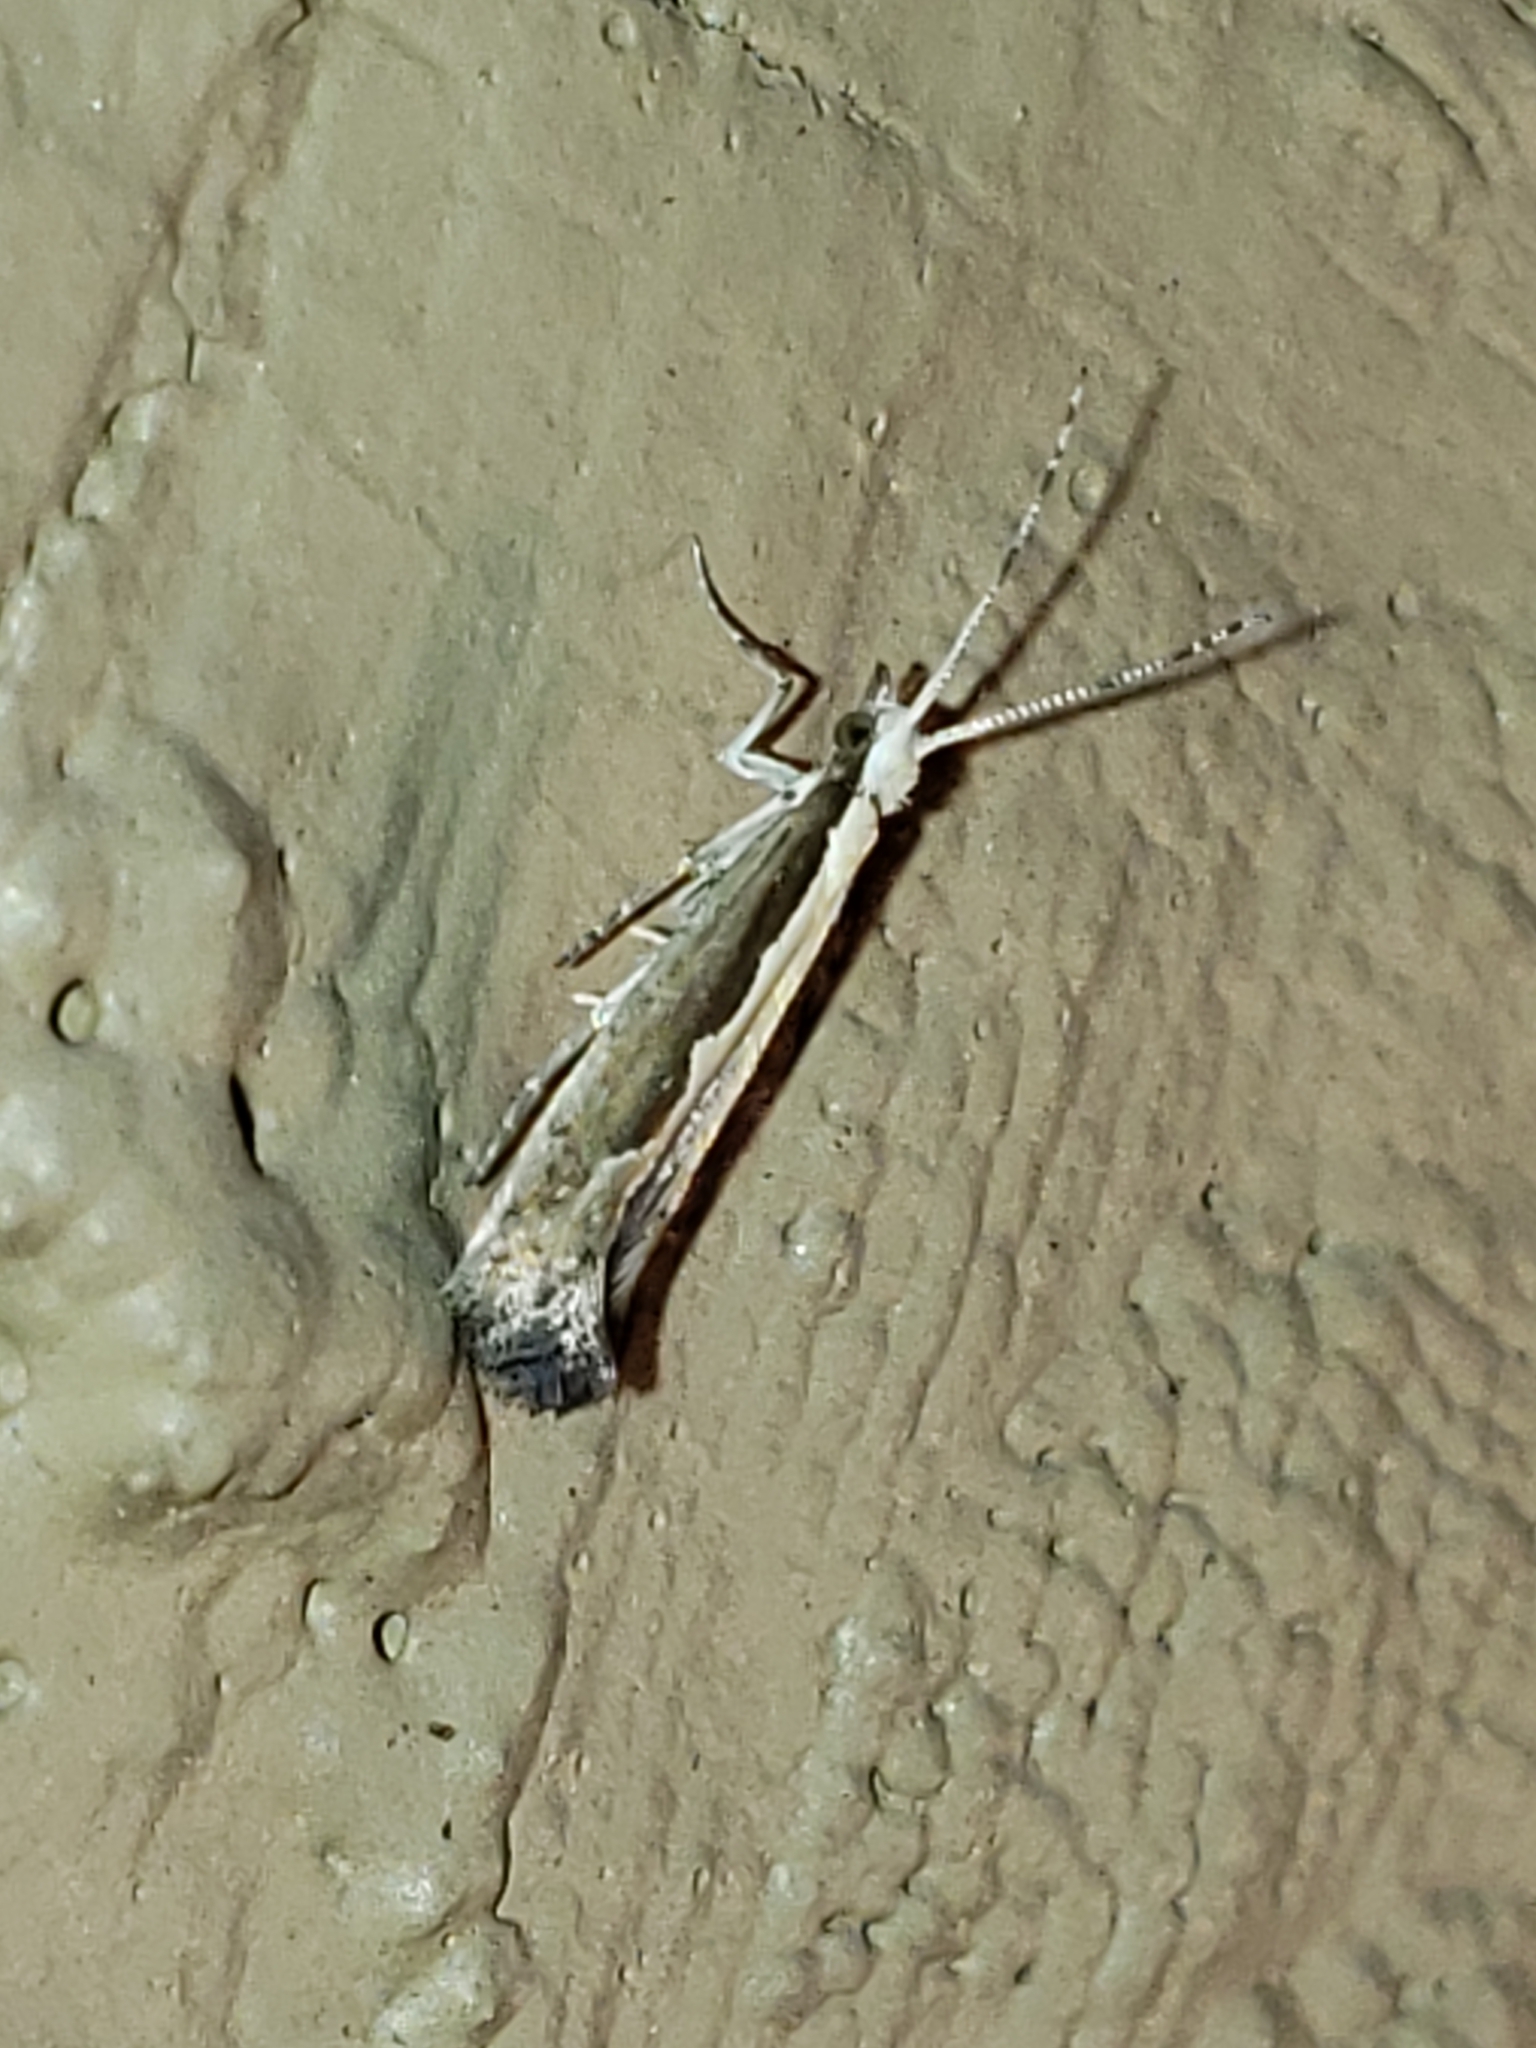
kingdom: Animalia
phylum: Arthropoda
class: Insecta
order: Lepidoptera
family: Plutellidae
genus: Plutella
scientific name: Plutella xylostella
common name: Diamond-back moth
